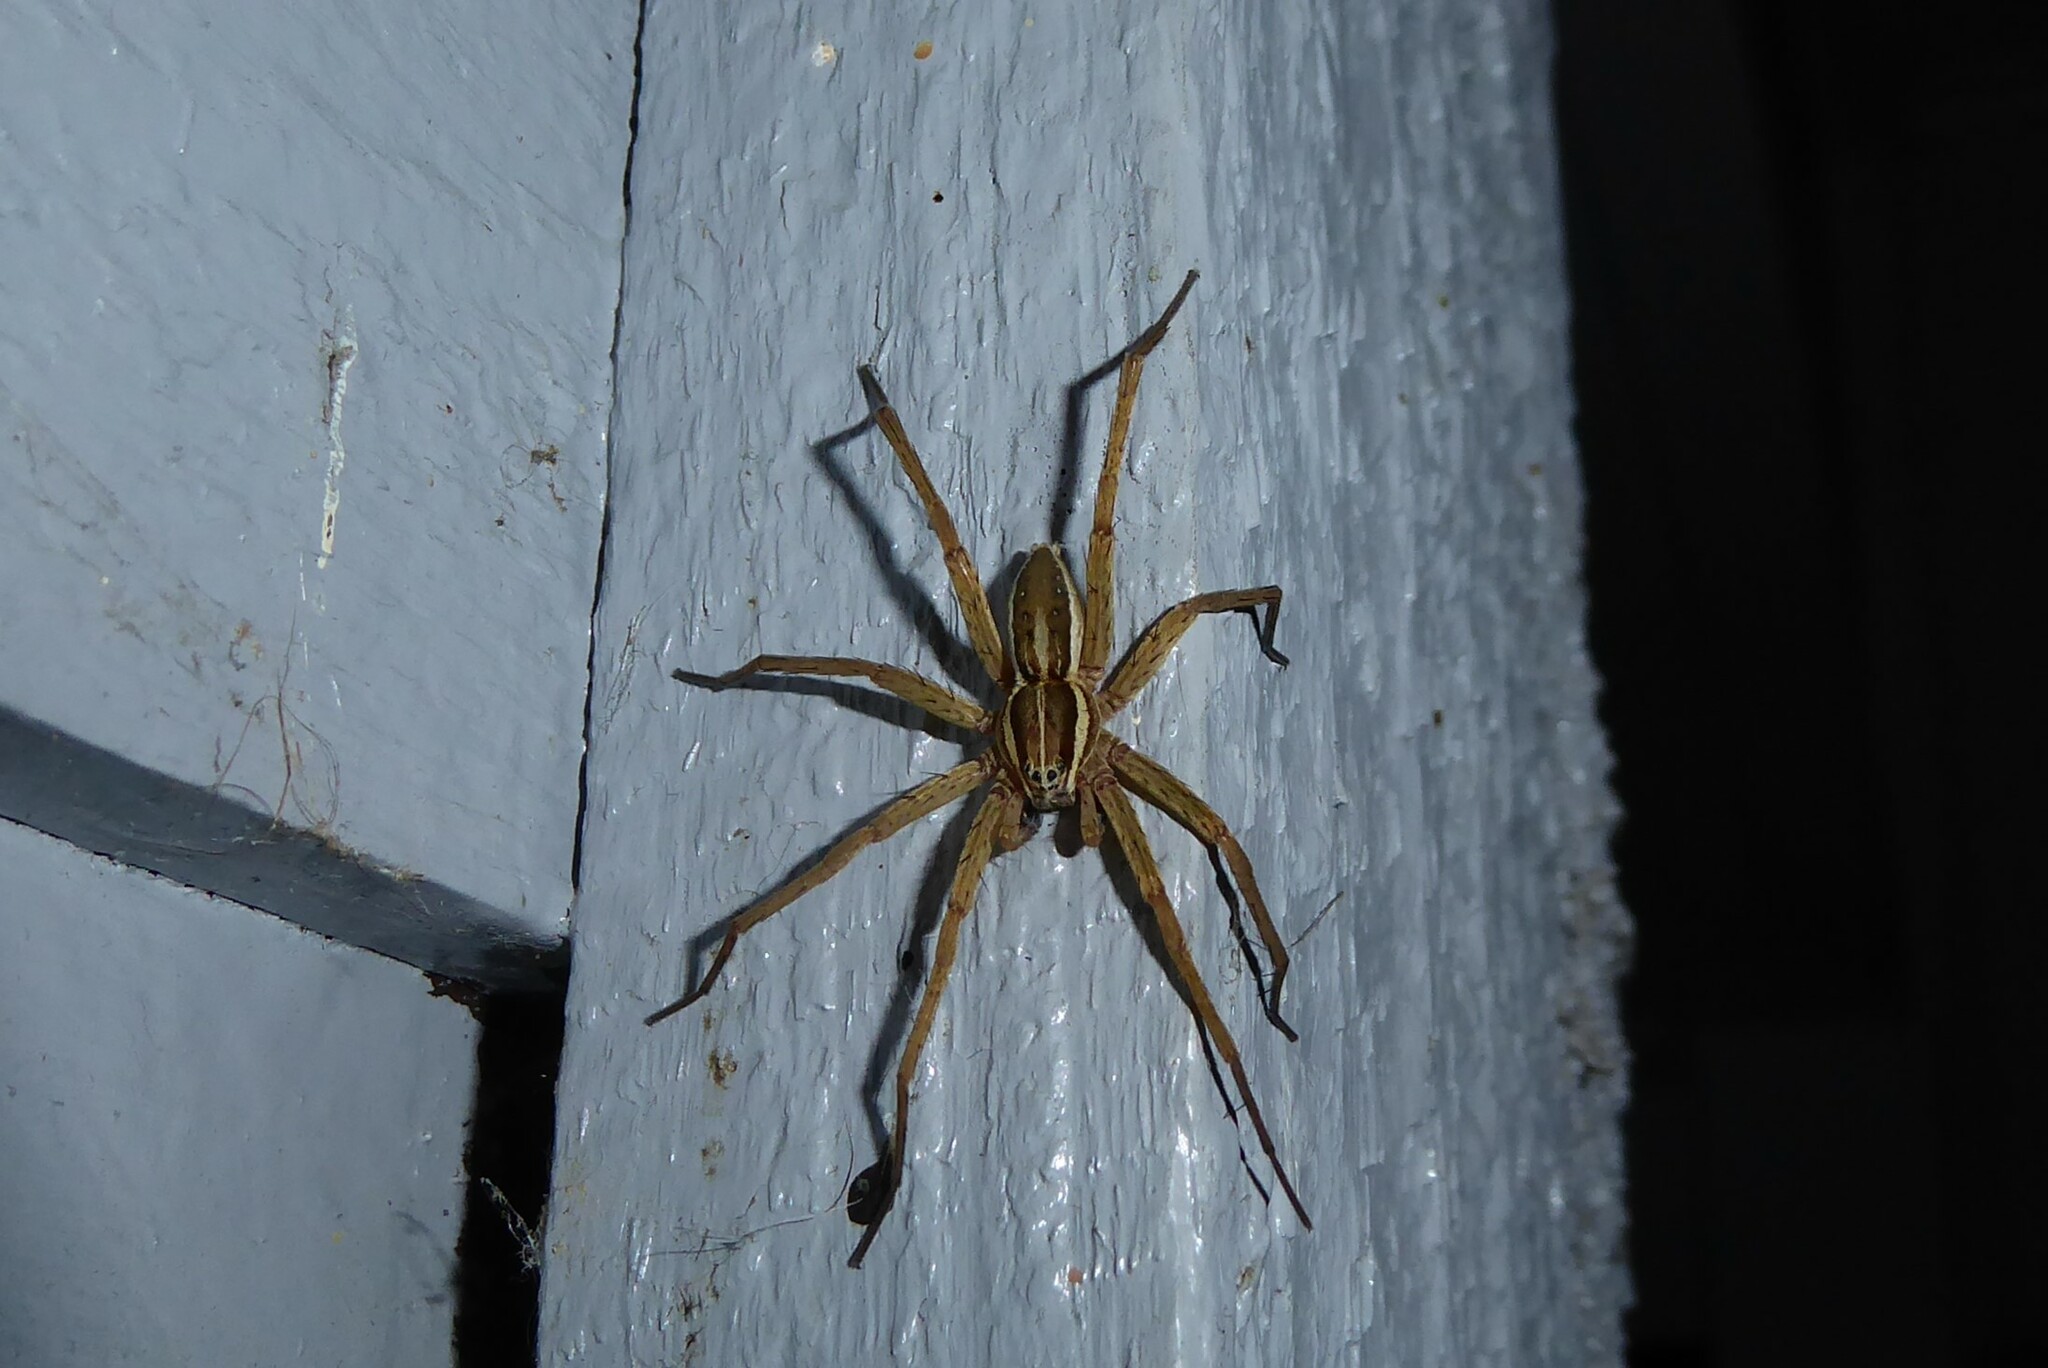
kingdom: Animalia
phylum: Arthropoda
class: Arachnida
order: Araneae
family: Pisauridae
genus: Dolomedes
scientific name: Dolomedes minor
